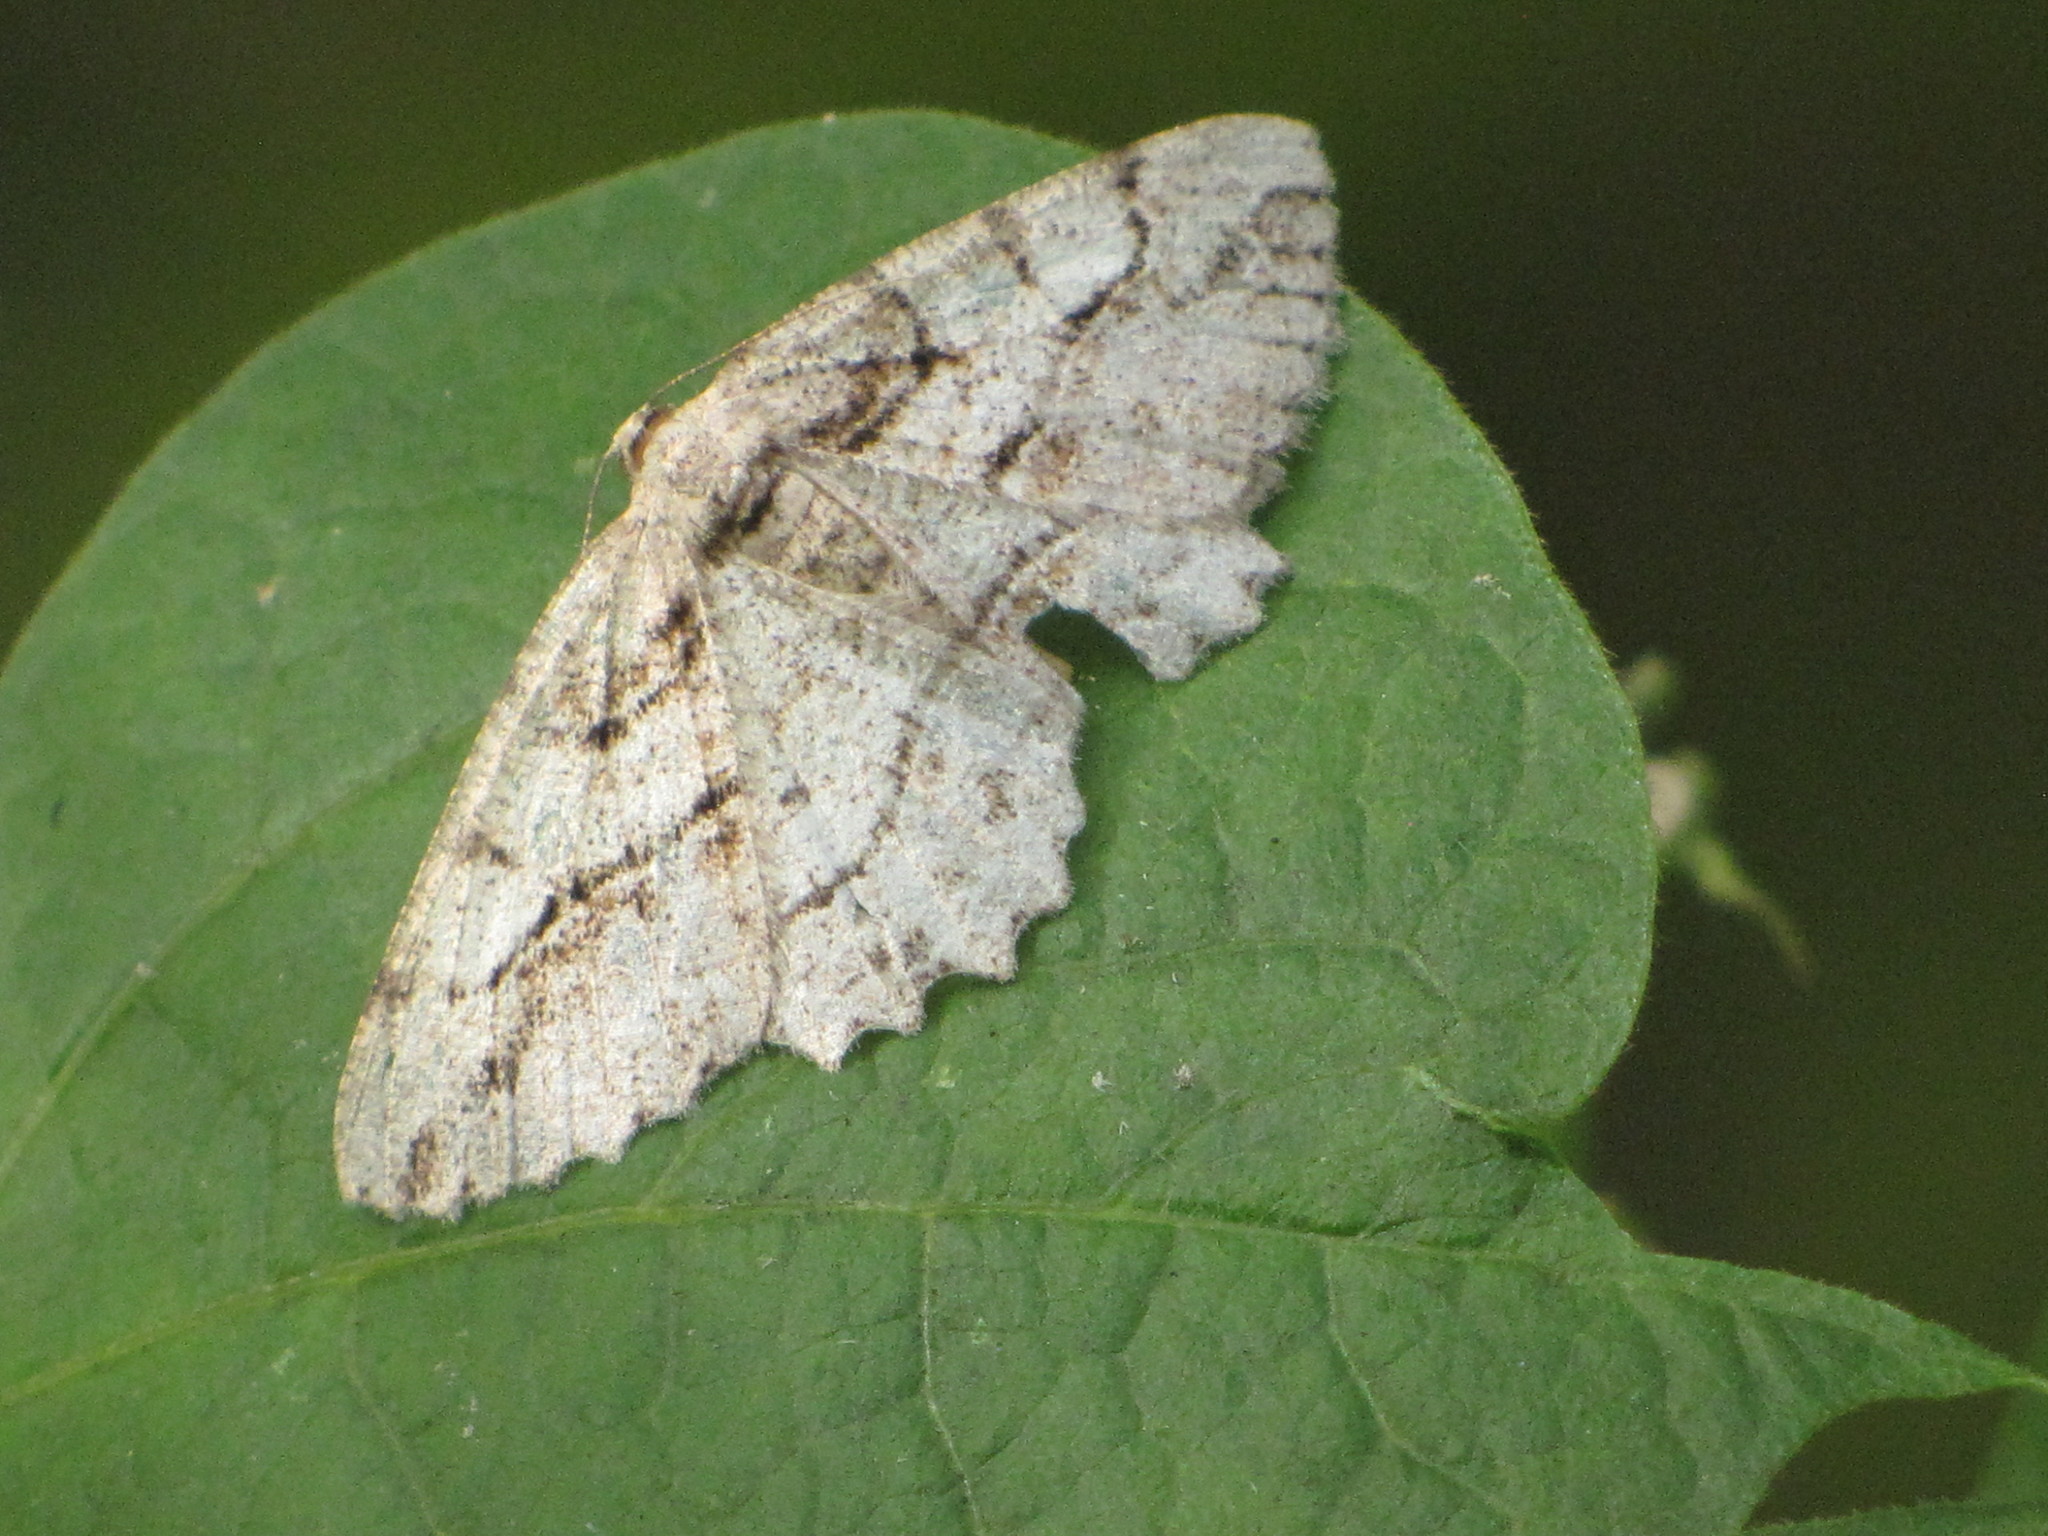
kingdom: Animalia
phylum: Arthropoda
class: Insecta
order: Lepidoptera
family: Geometridae
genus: Neoalcis
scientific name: Neoalcis californiaria
